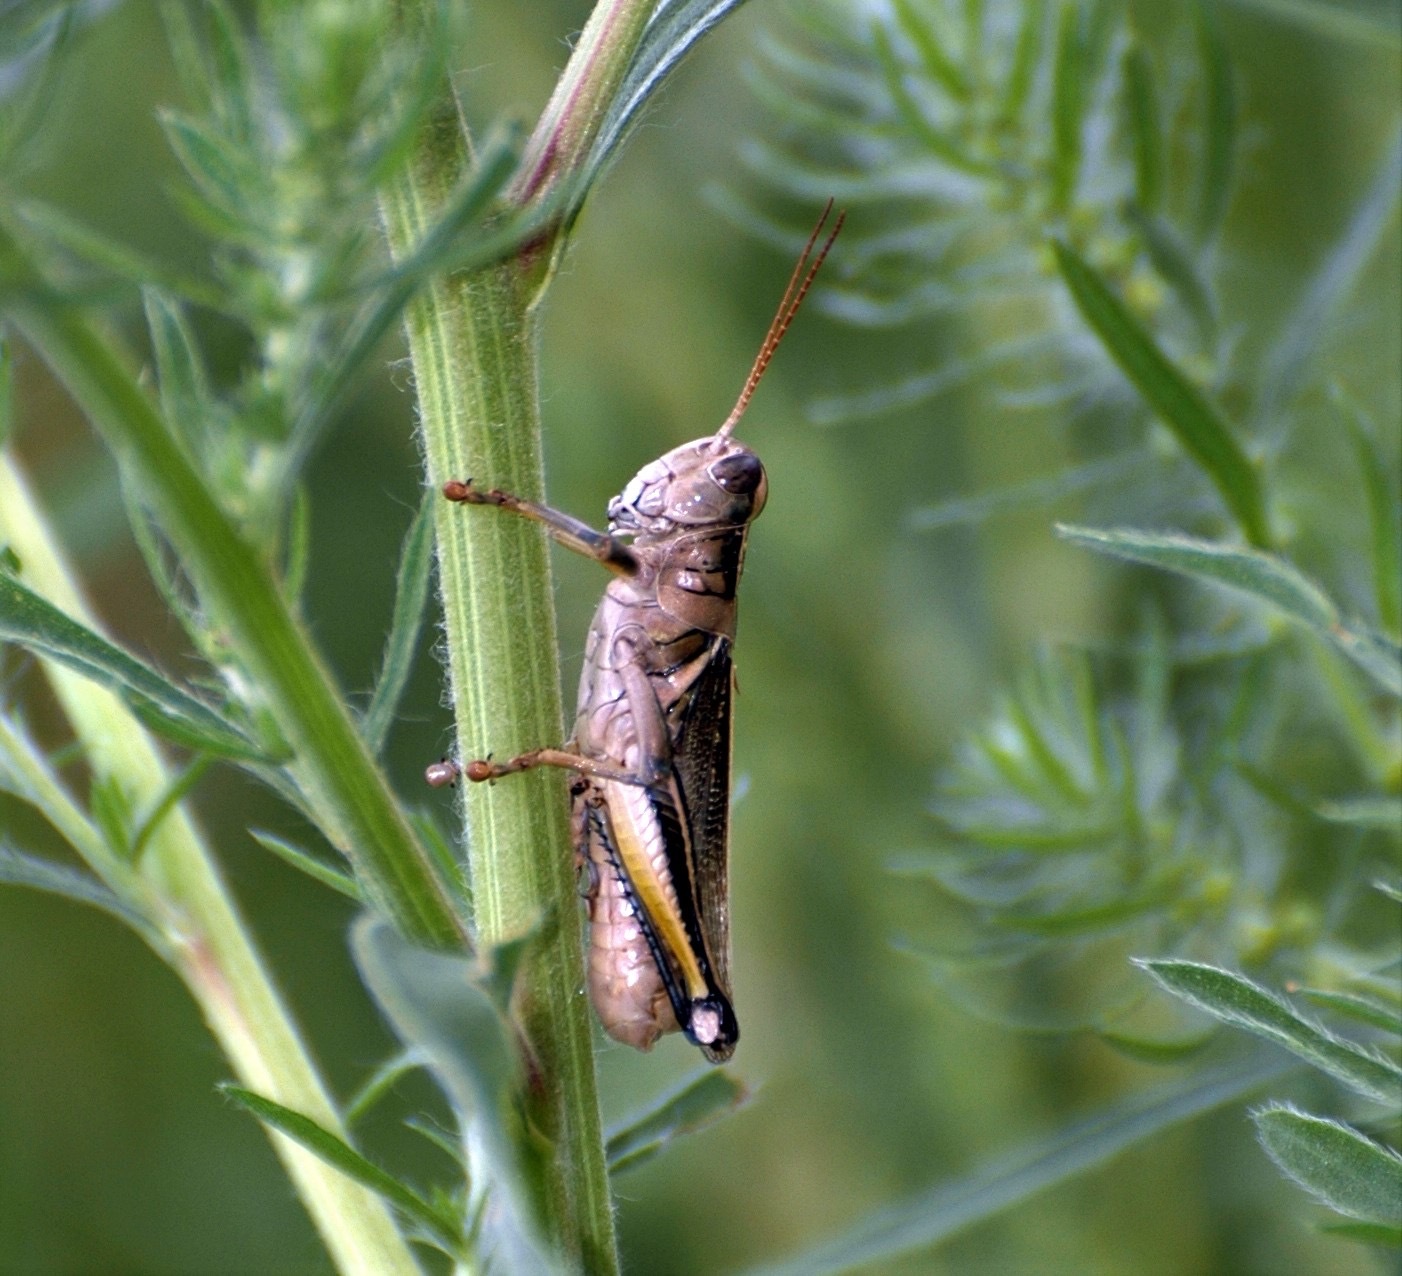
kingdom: Animalia
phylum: Arthropoda
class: Insecta
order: Orthoptera
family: Acrididae
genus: Melanoplus
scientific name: Melanoplus bivittatus
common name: Two-striped grasshopper
